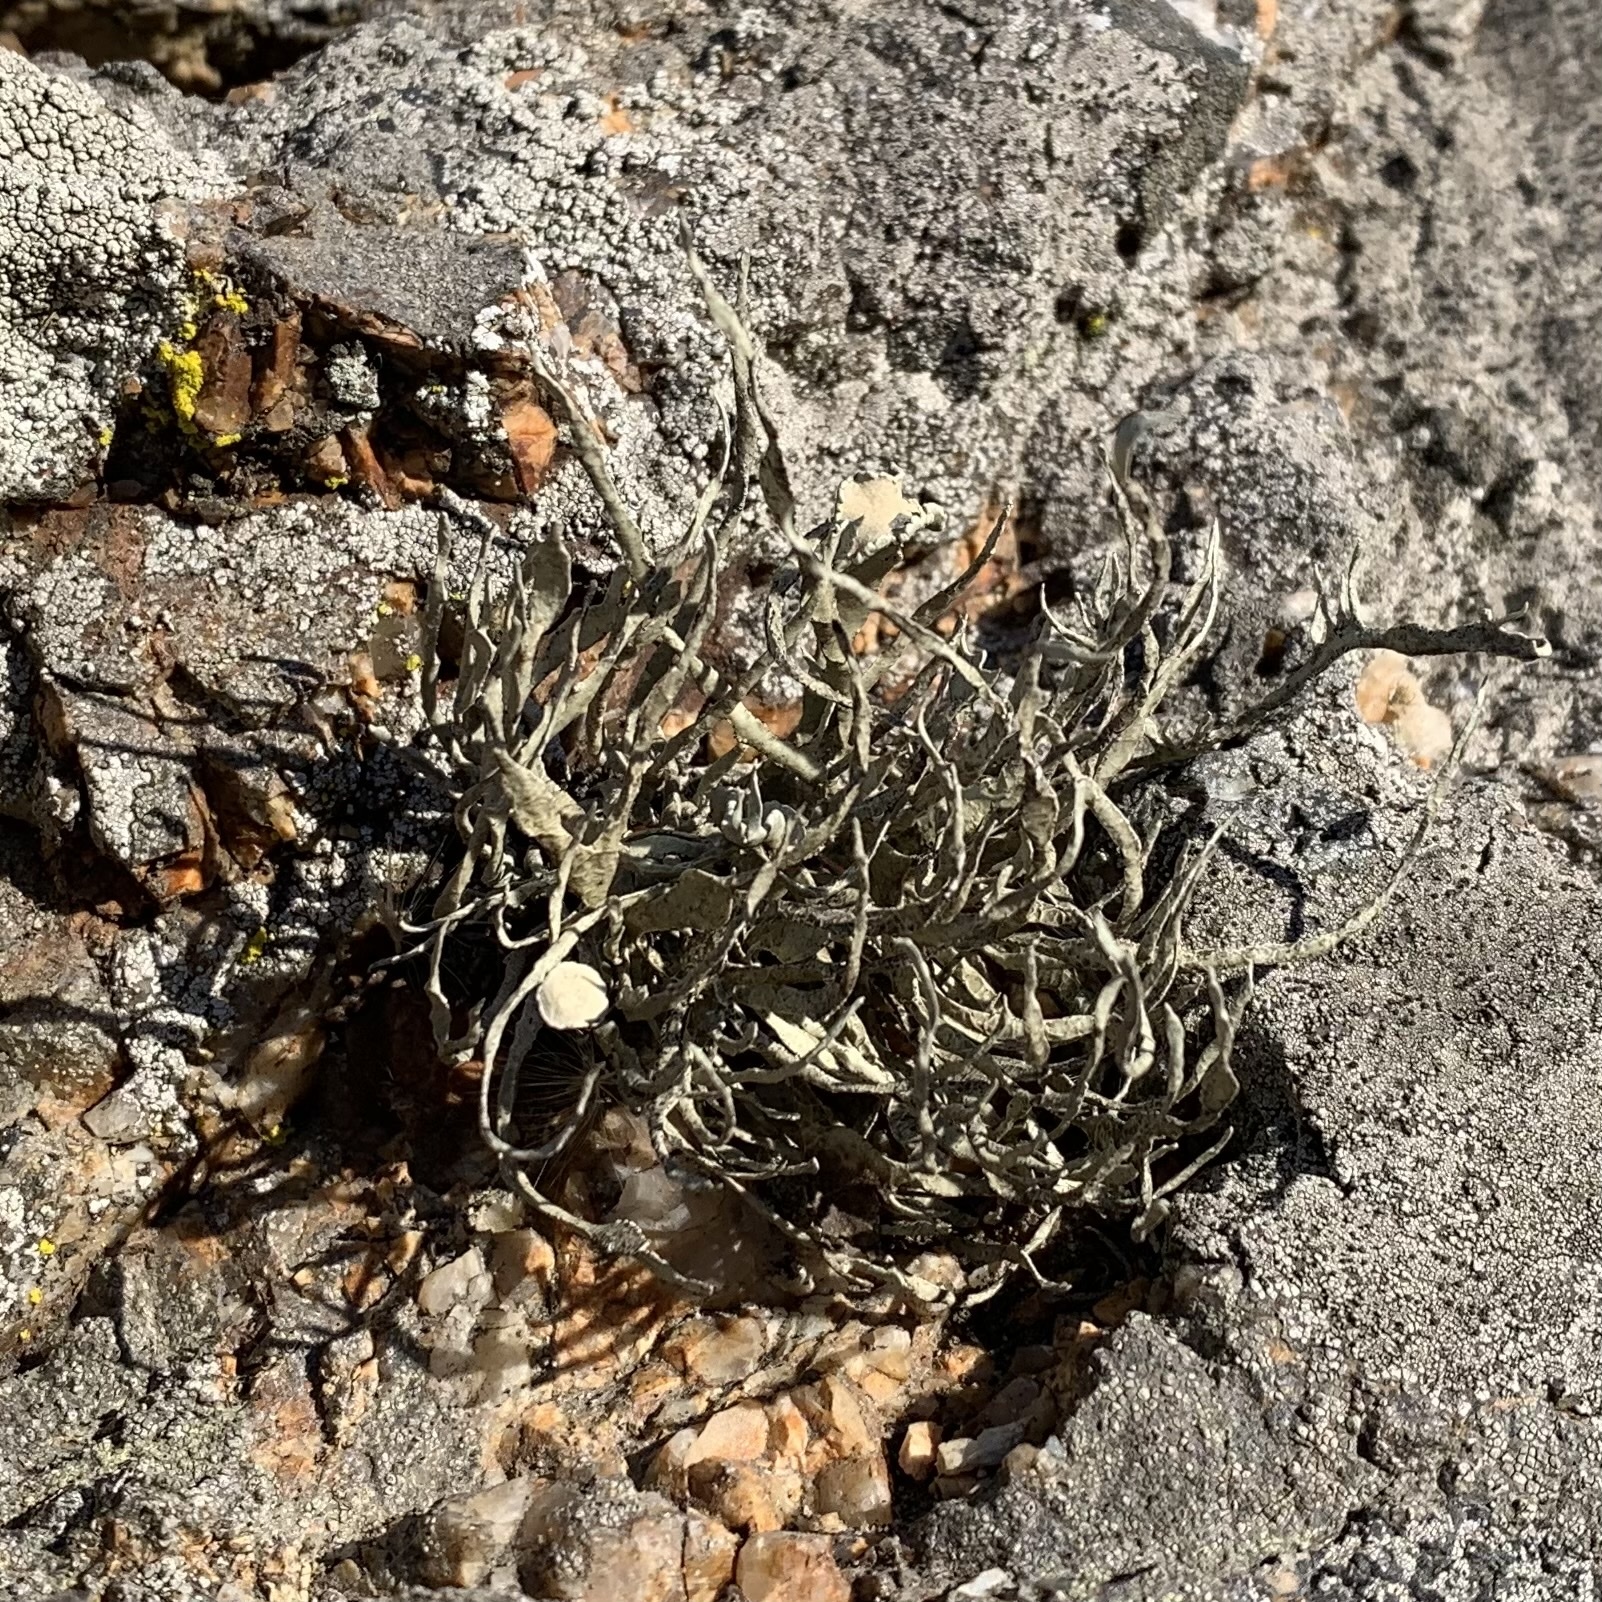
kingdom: Fungi
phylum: Ascomycota
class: Lecanoromycetes
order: Lecanorales
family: Ramalinaceae
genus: Niebla
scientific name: Niebla homalea
